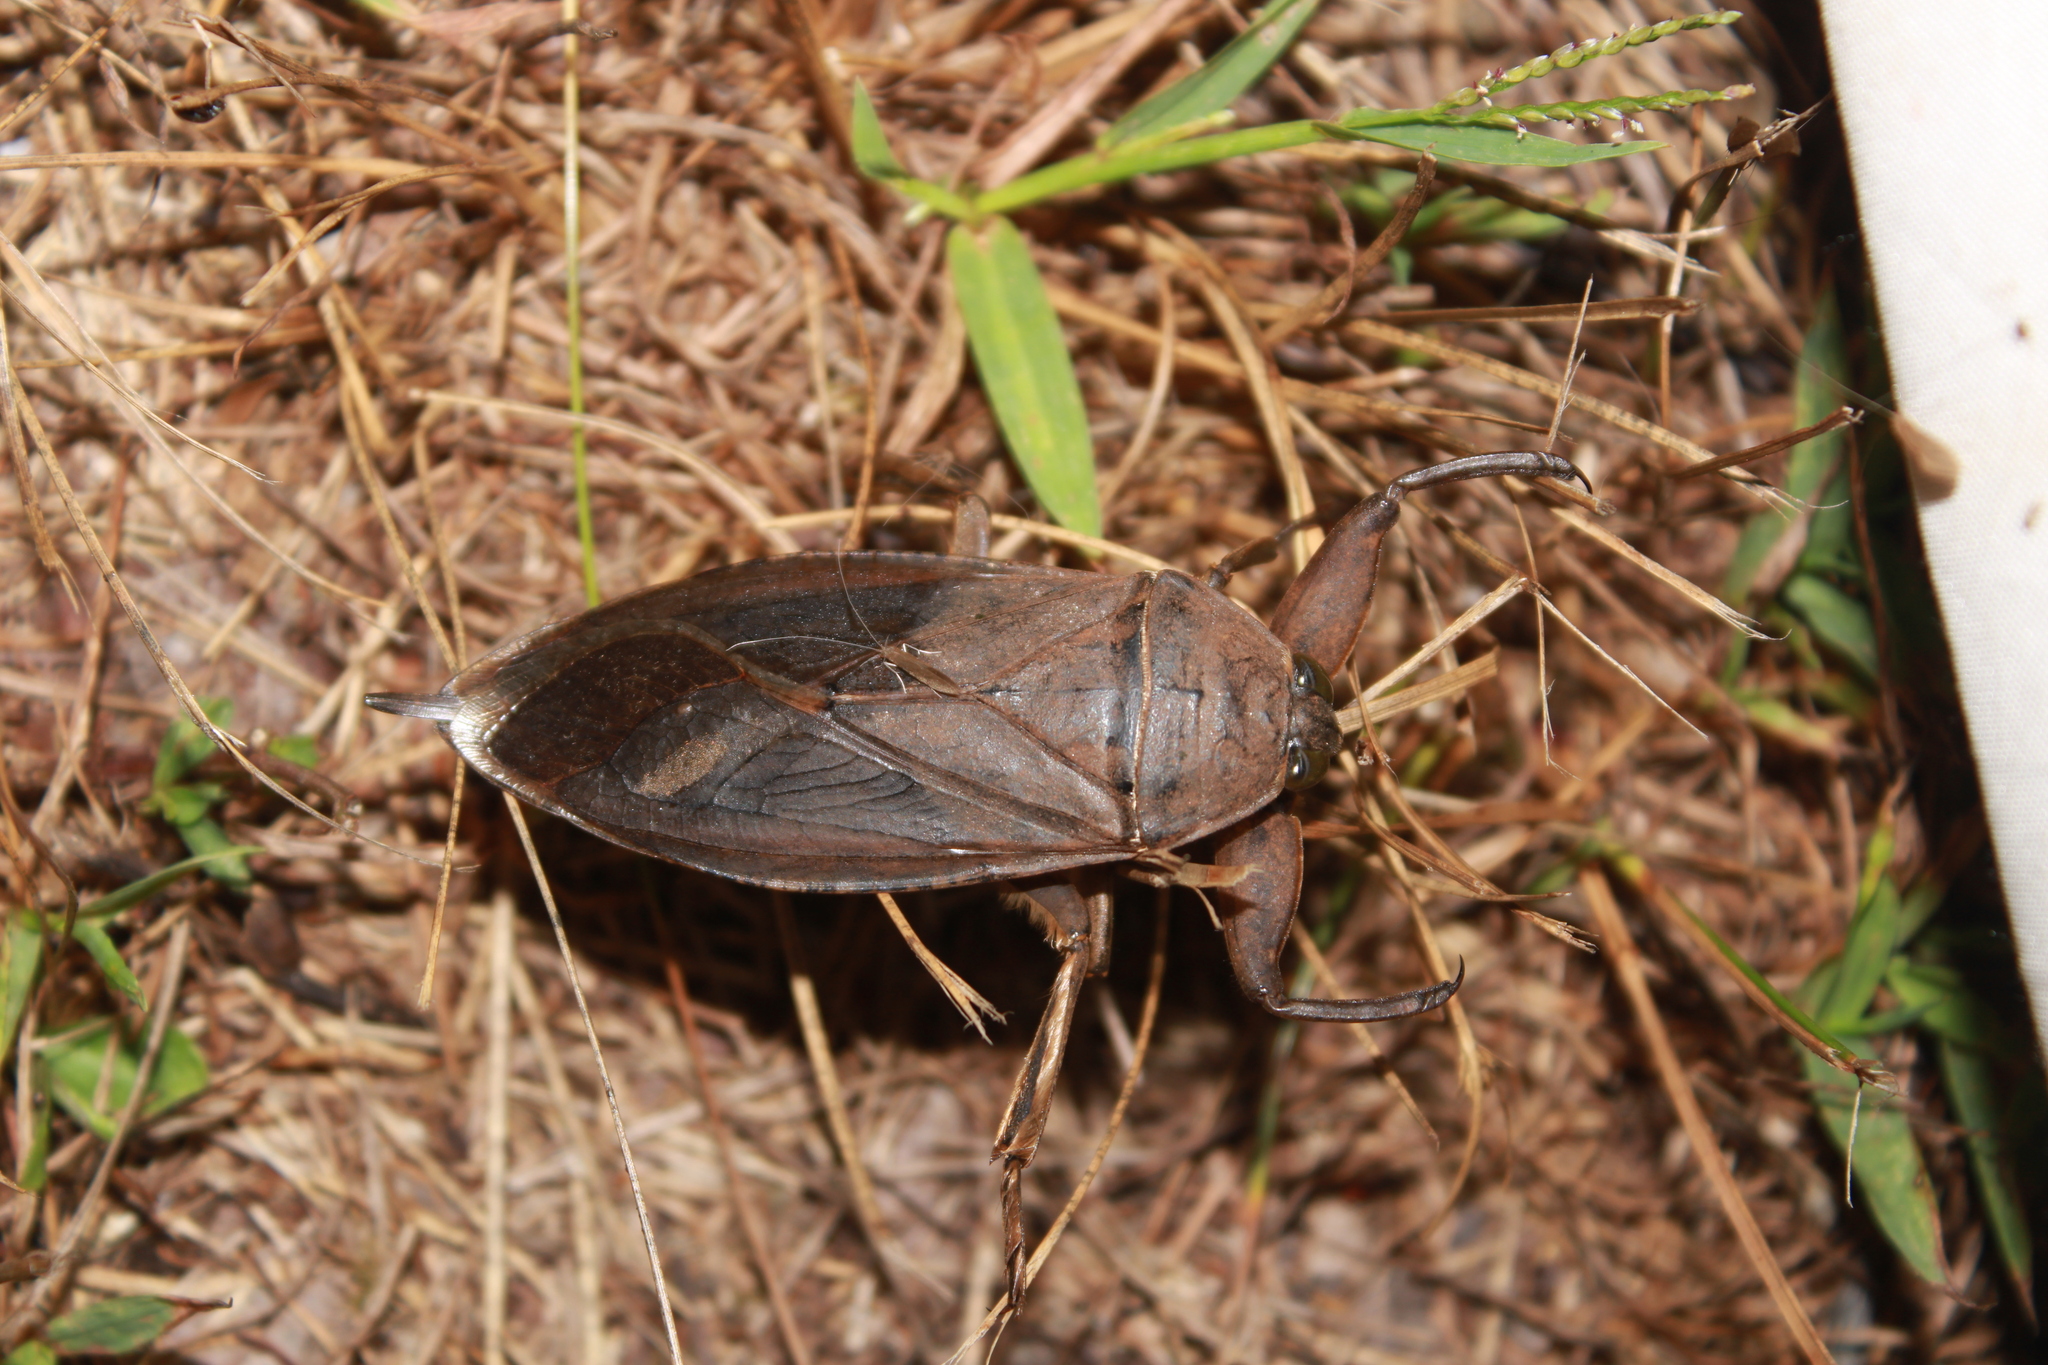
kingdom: Animalia
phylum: Arthropoda
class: Insecta
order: Hemiptera
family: Belostomatidae
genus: Lethocerus
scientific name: Lethocerus americanus
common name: Giant water bug
